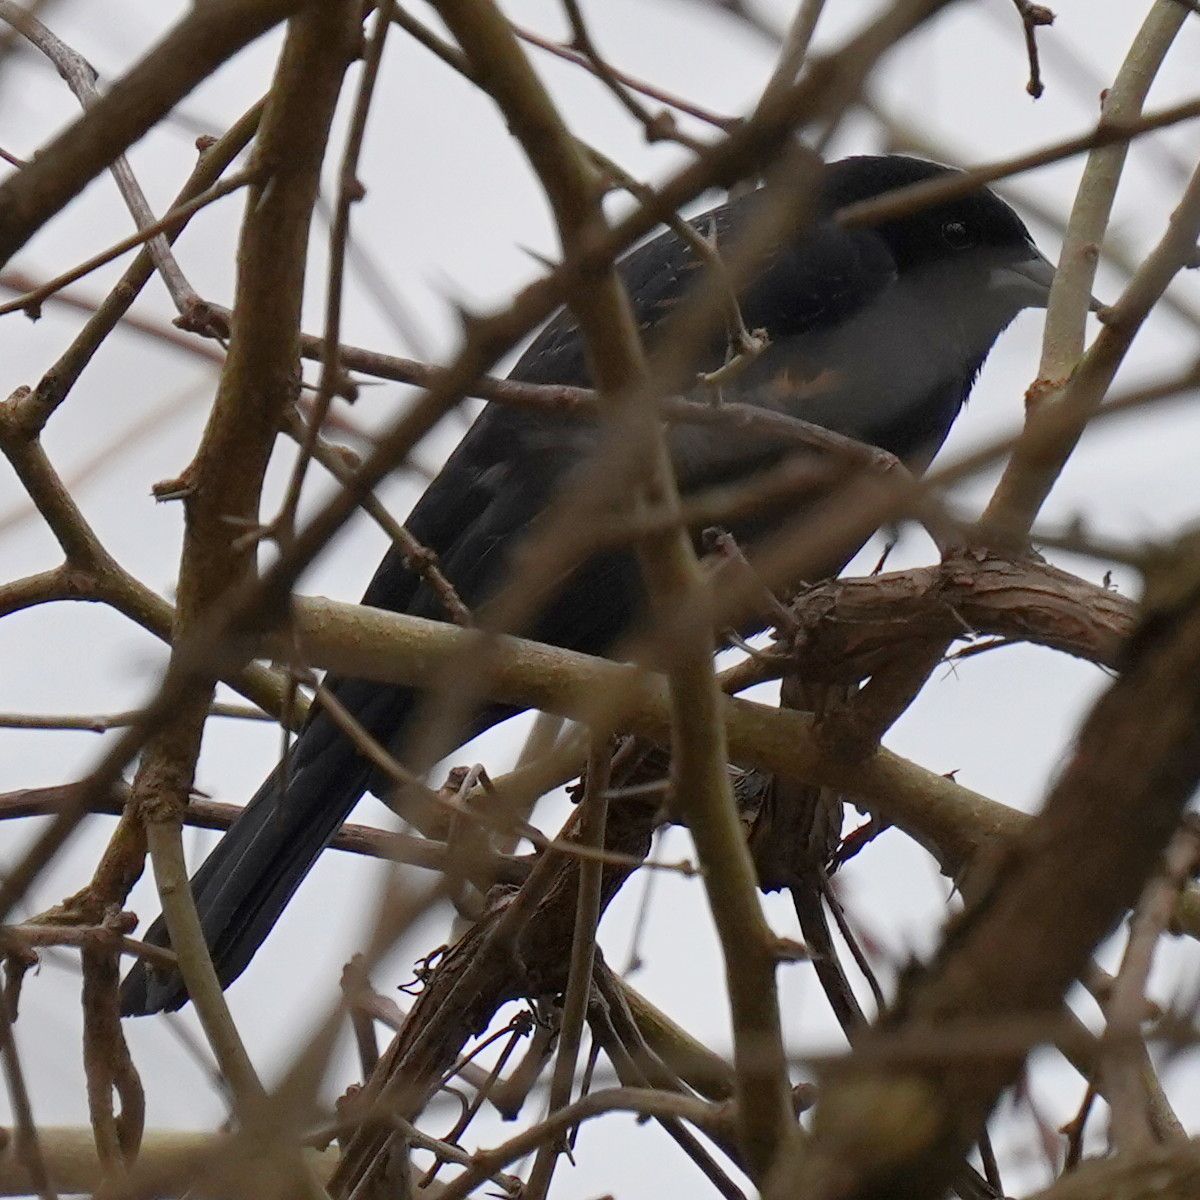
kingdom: Animalia
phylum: Chordata
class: Aves
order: Passeriformes
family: Icteridae
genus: Agelaius
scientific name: Agelaius phoeniceus
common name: Red-winged blackbird
